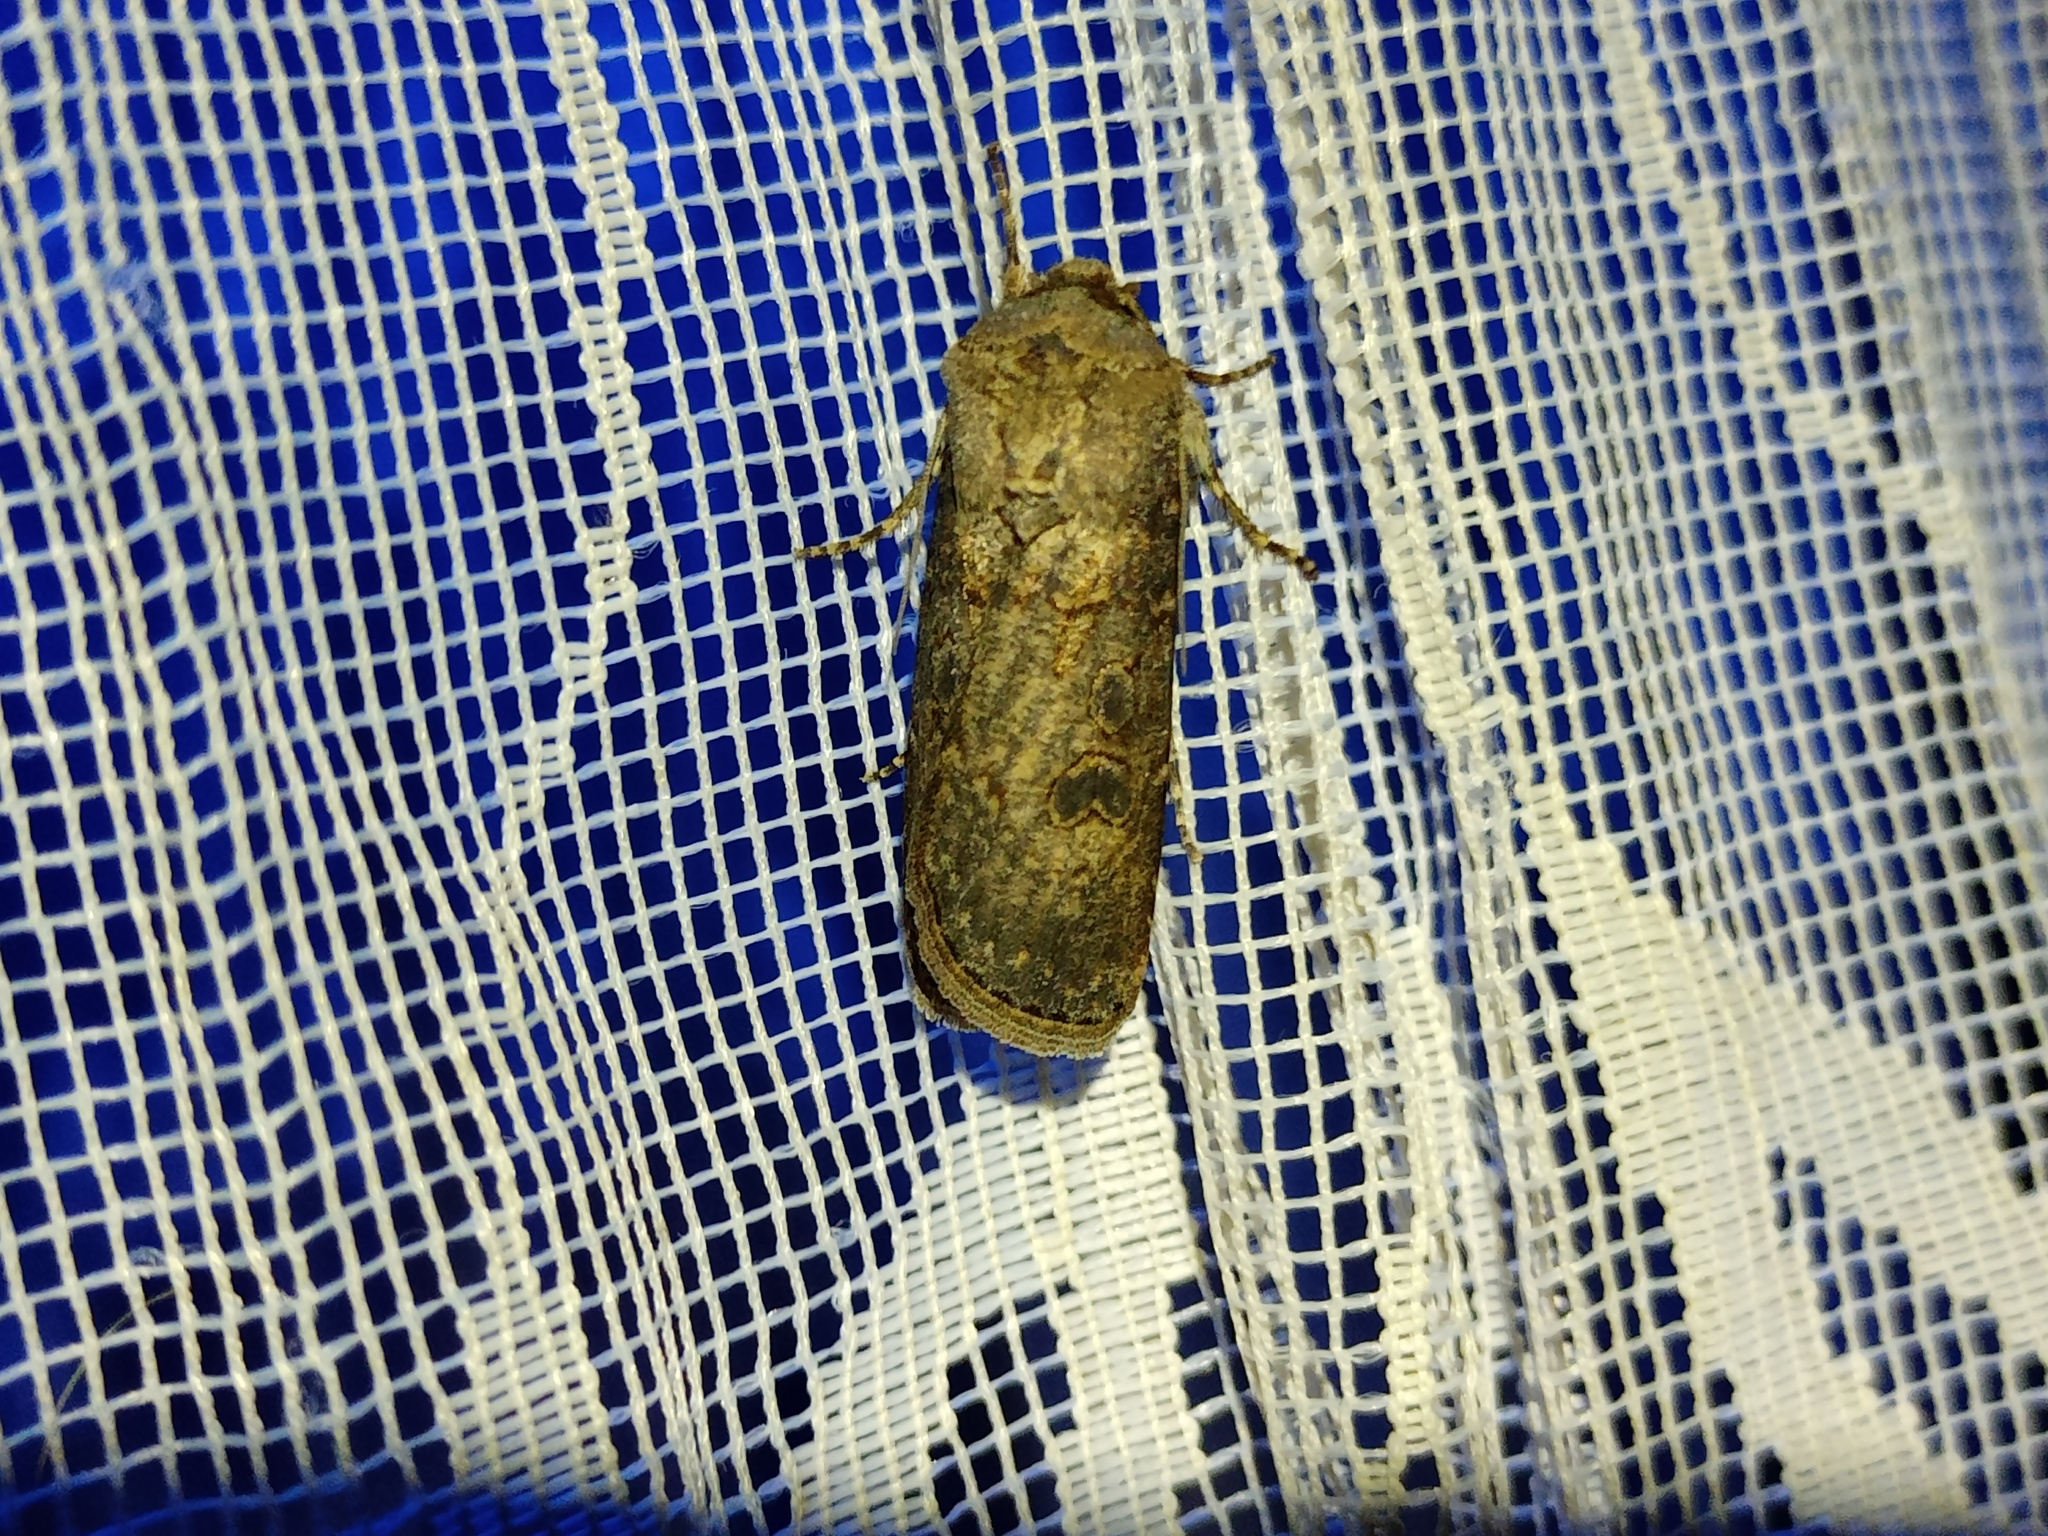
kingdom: Animalia
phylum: Arthropoda
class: Insecta
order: Lepidoptera
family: Noctuidae
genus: Agrotis
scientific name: Agrotis segetum
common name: Turnip moth
